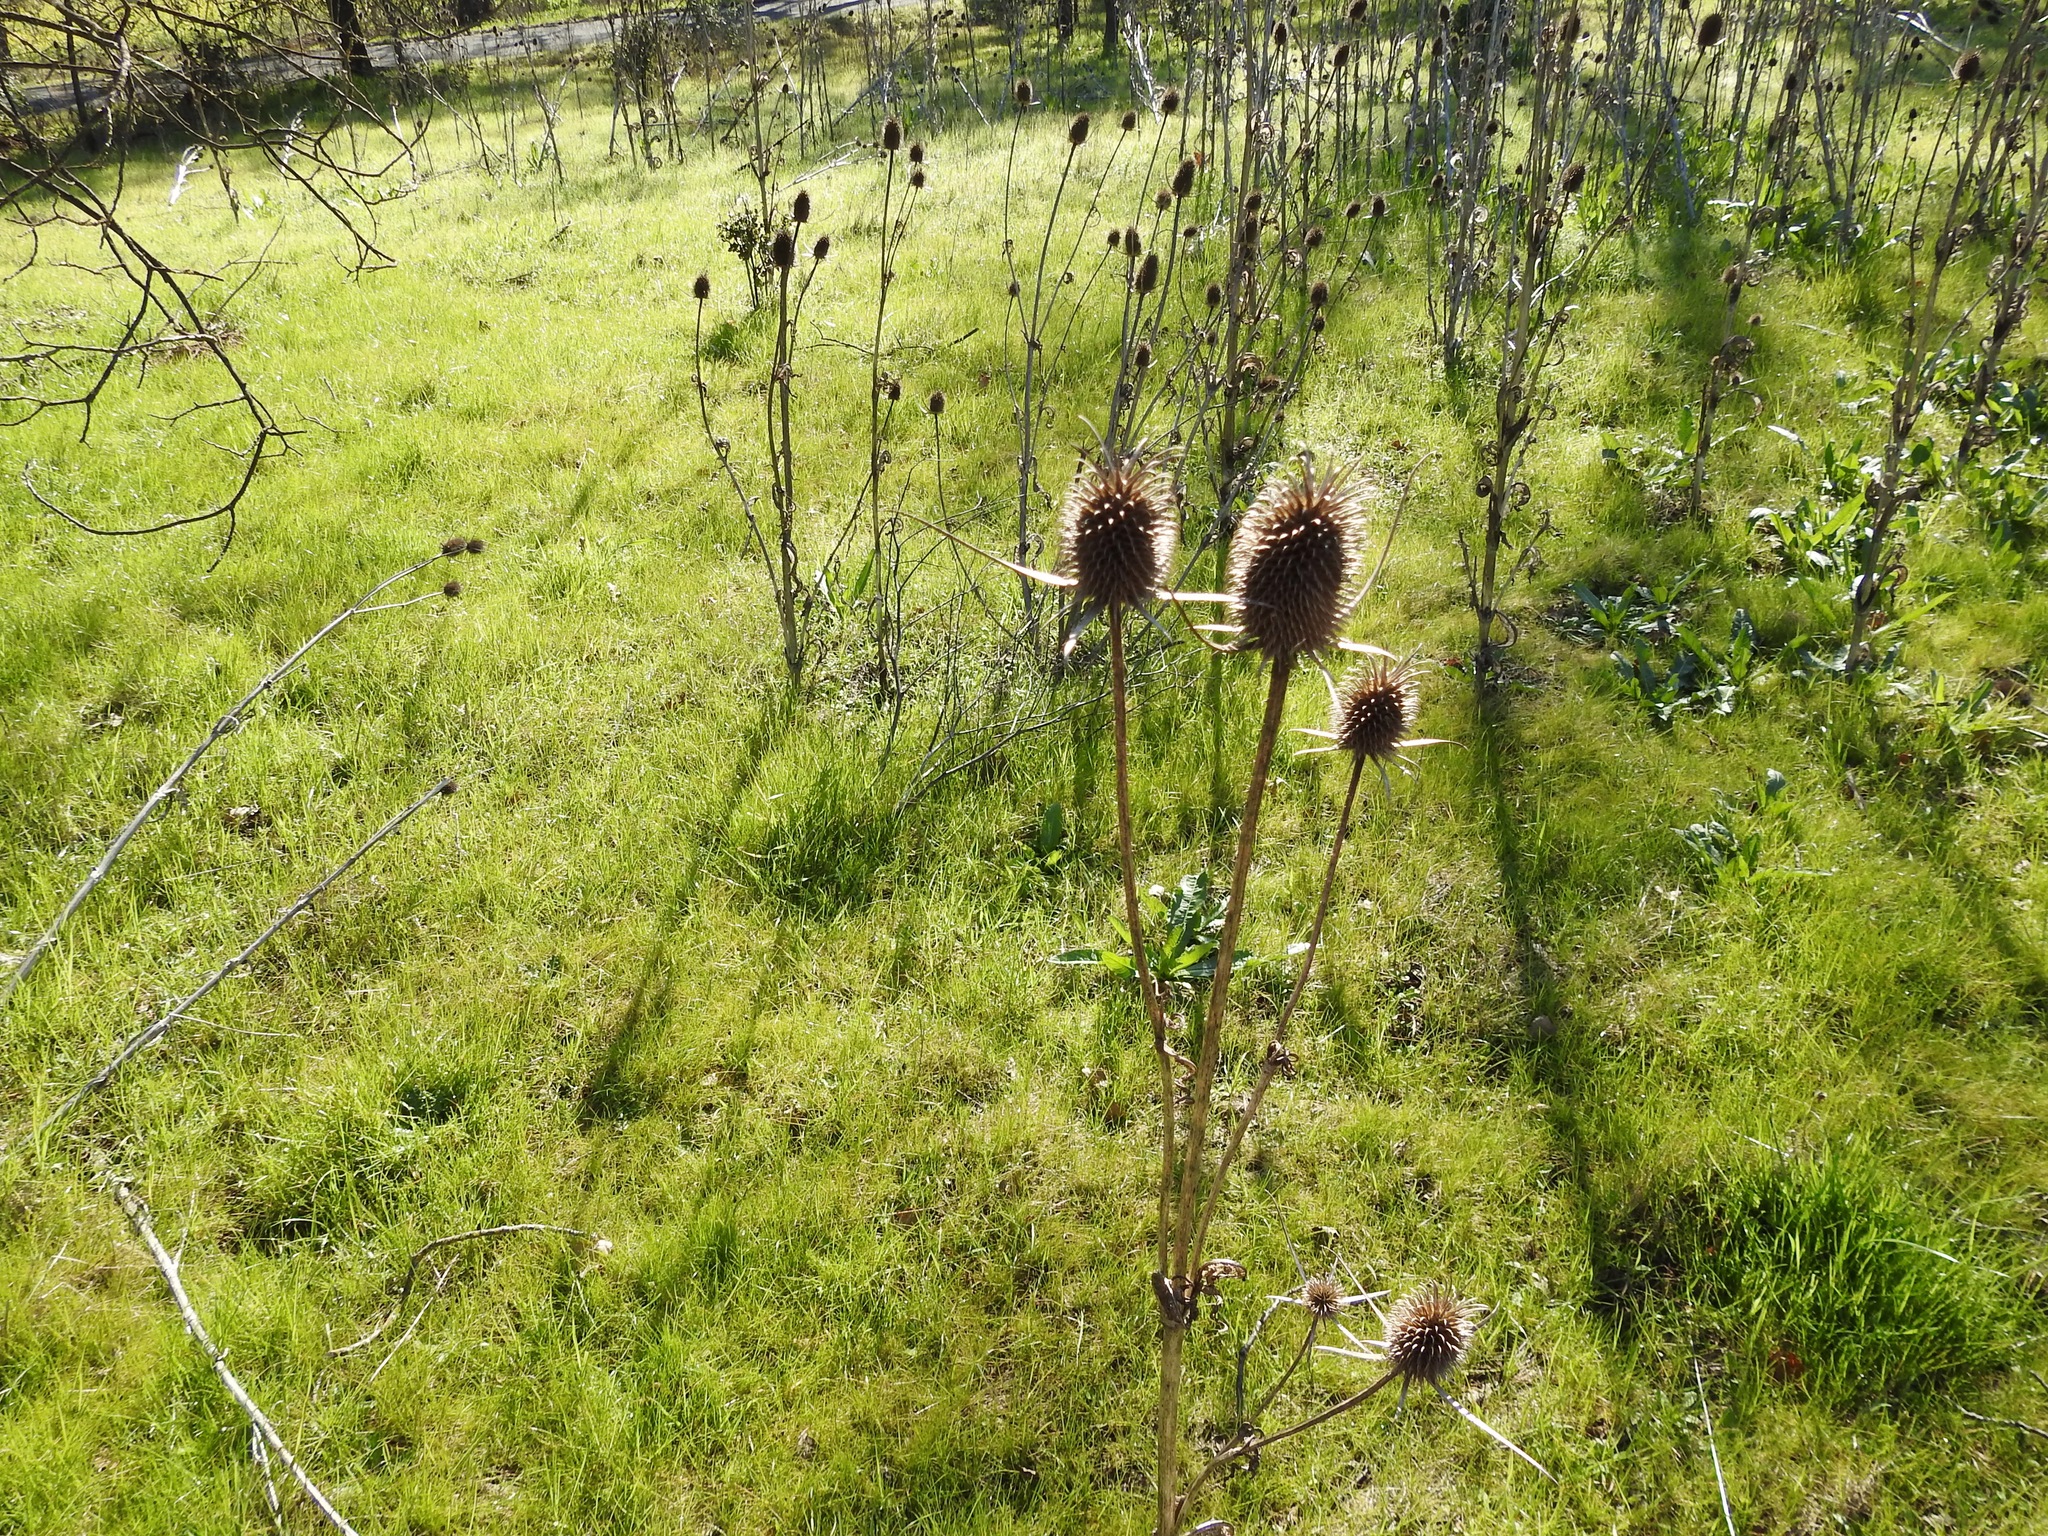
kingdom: Plantae
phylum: Tracheophyta
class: Magnoliopsida
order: Dipsacales
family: Caprifoliaceae
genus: Dipsacus
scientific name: Dipsacus sativus
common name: Fuller's teasel
